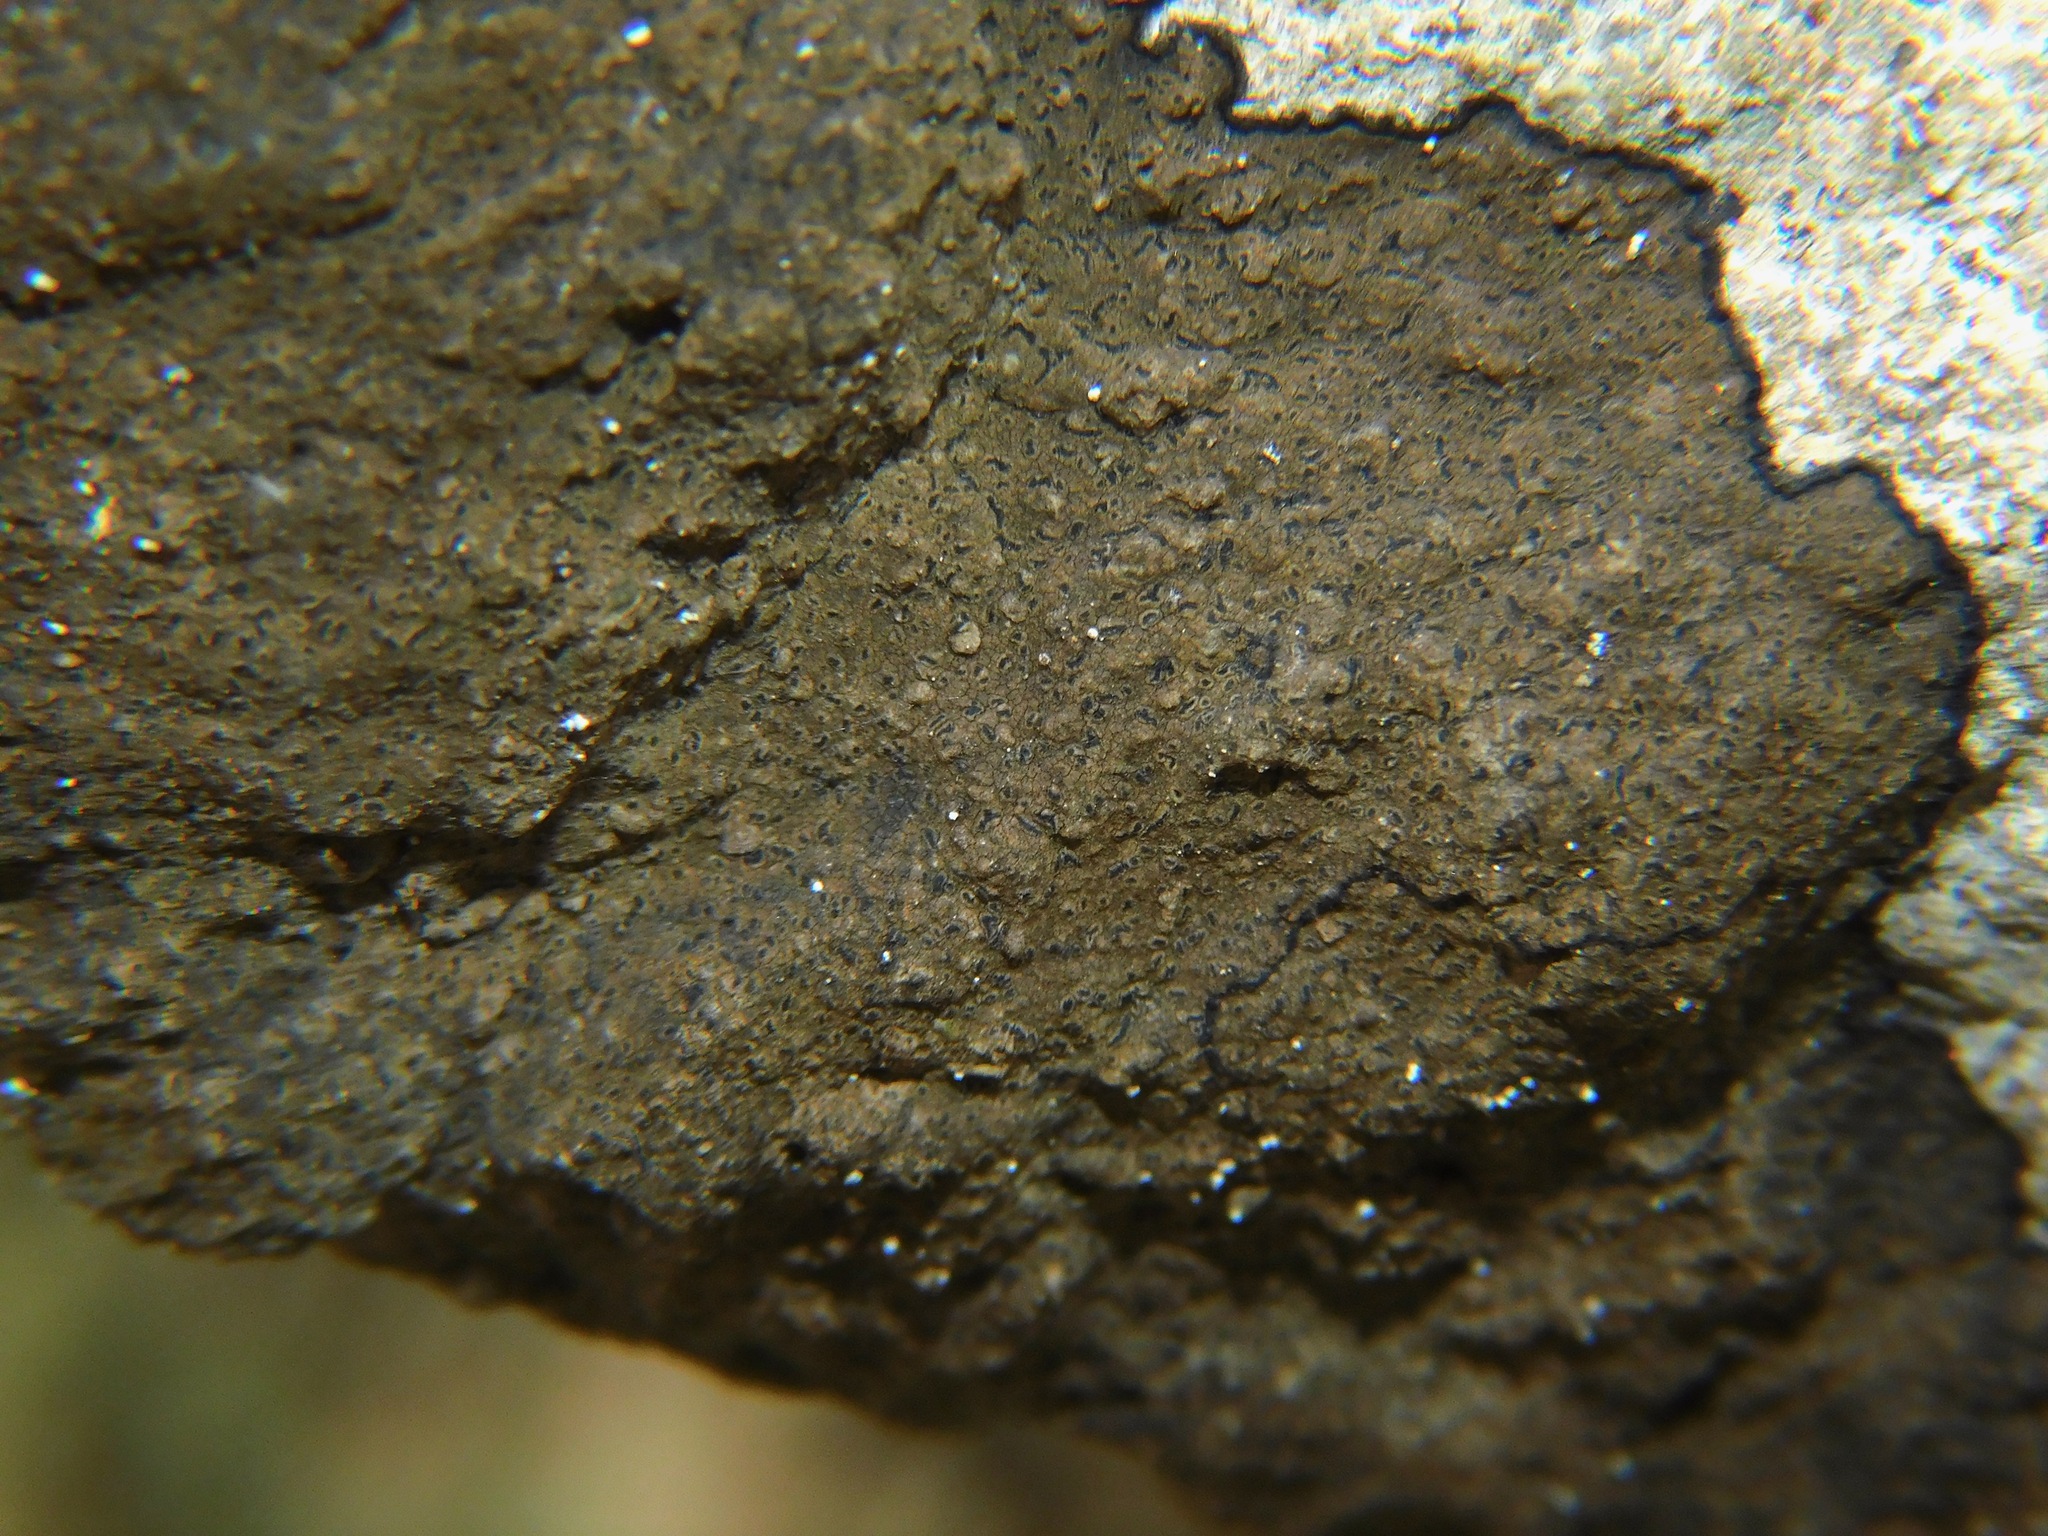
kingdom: Fungi
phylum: Ascomycota
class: Arthoniomycetes
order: Arthoniales
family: Roccellaceae
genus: Enterographa
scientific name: Enterographa hutchinsiae
